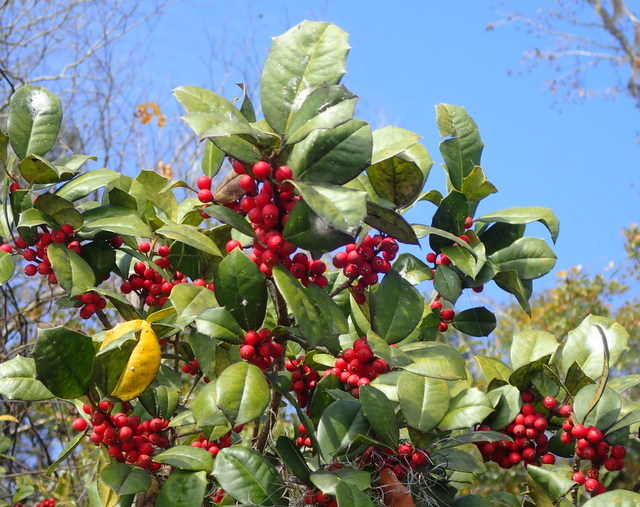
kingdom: Plantae
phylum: Tracheophyta
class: Magnoliopsida
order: Aquifoliales
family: Aquifoliaceae
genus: Ilex
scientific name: Ilex opaca
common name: American holly
